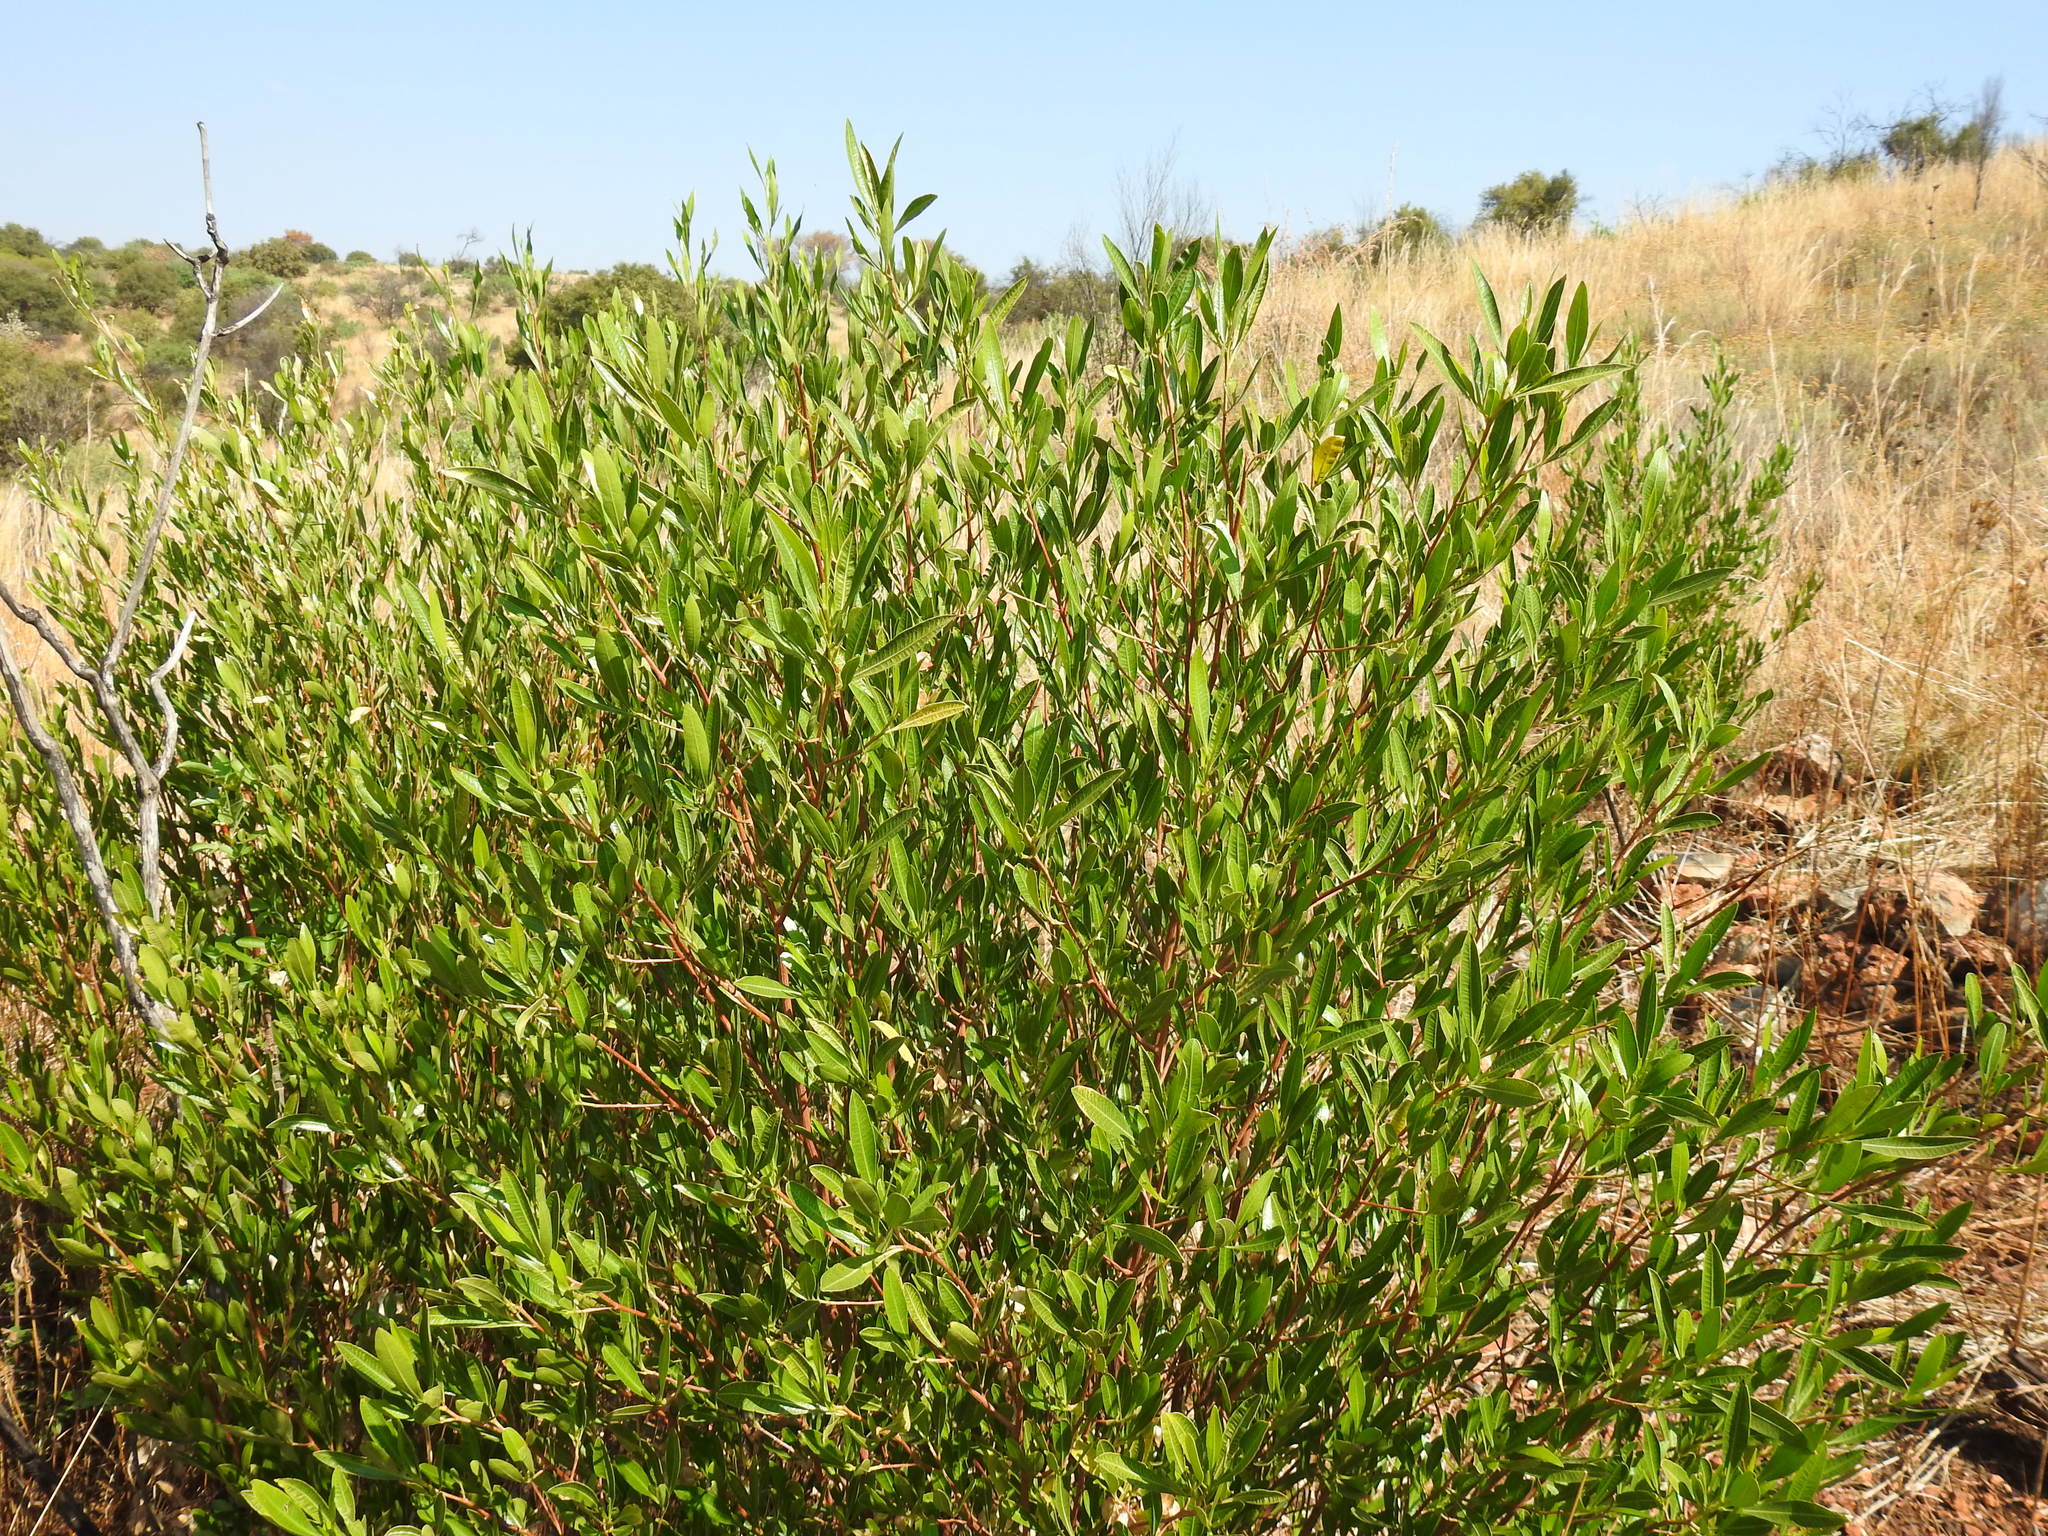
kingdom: Plantae
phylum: Tracheophyta
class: Magnoliopsida
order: Sapindales
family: Sapindaceae
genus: Dodonaea
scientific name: Dodonaea viscosa
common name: Hopbush
